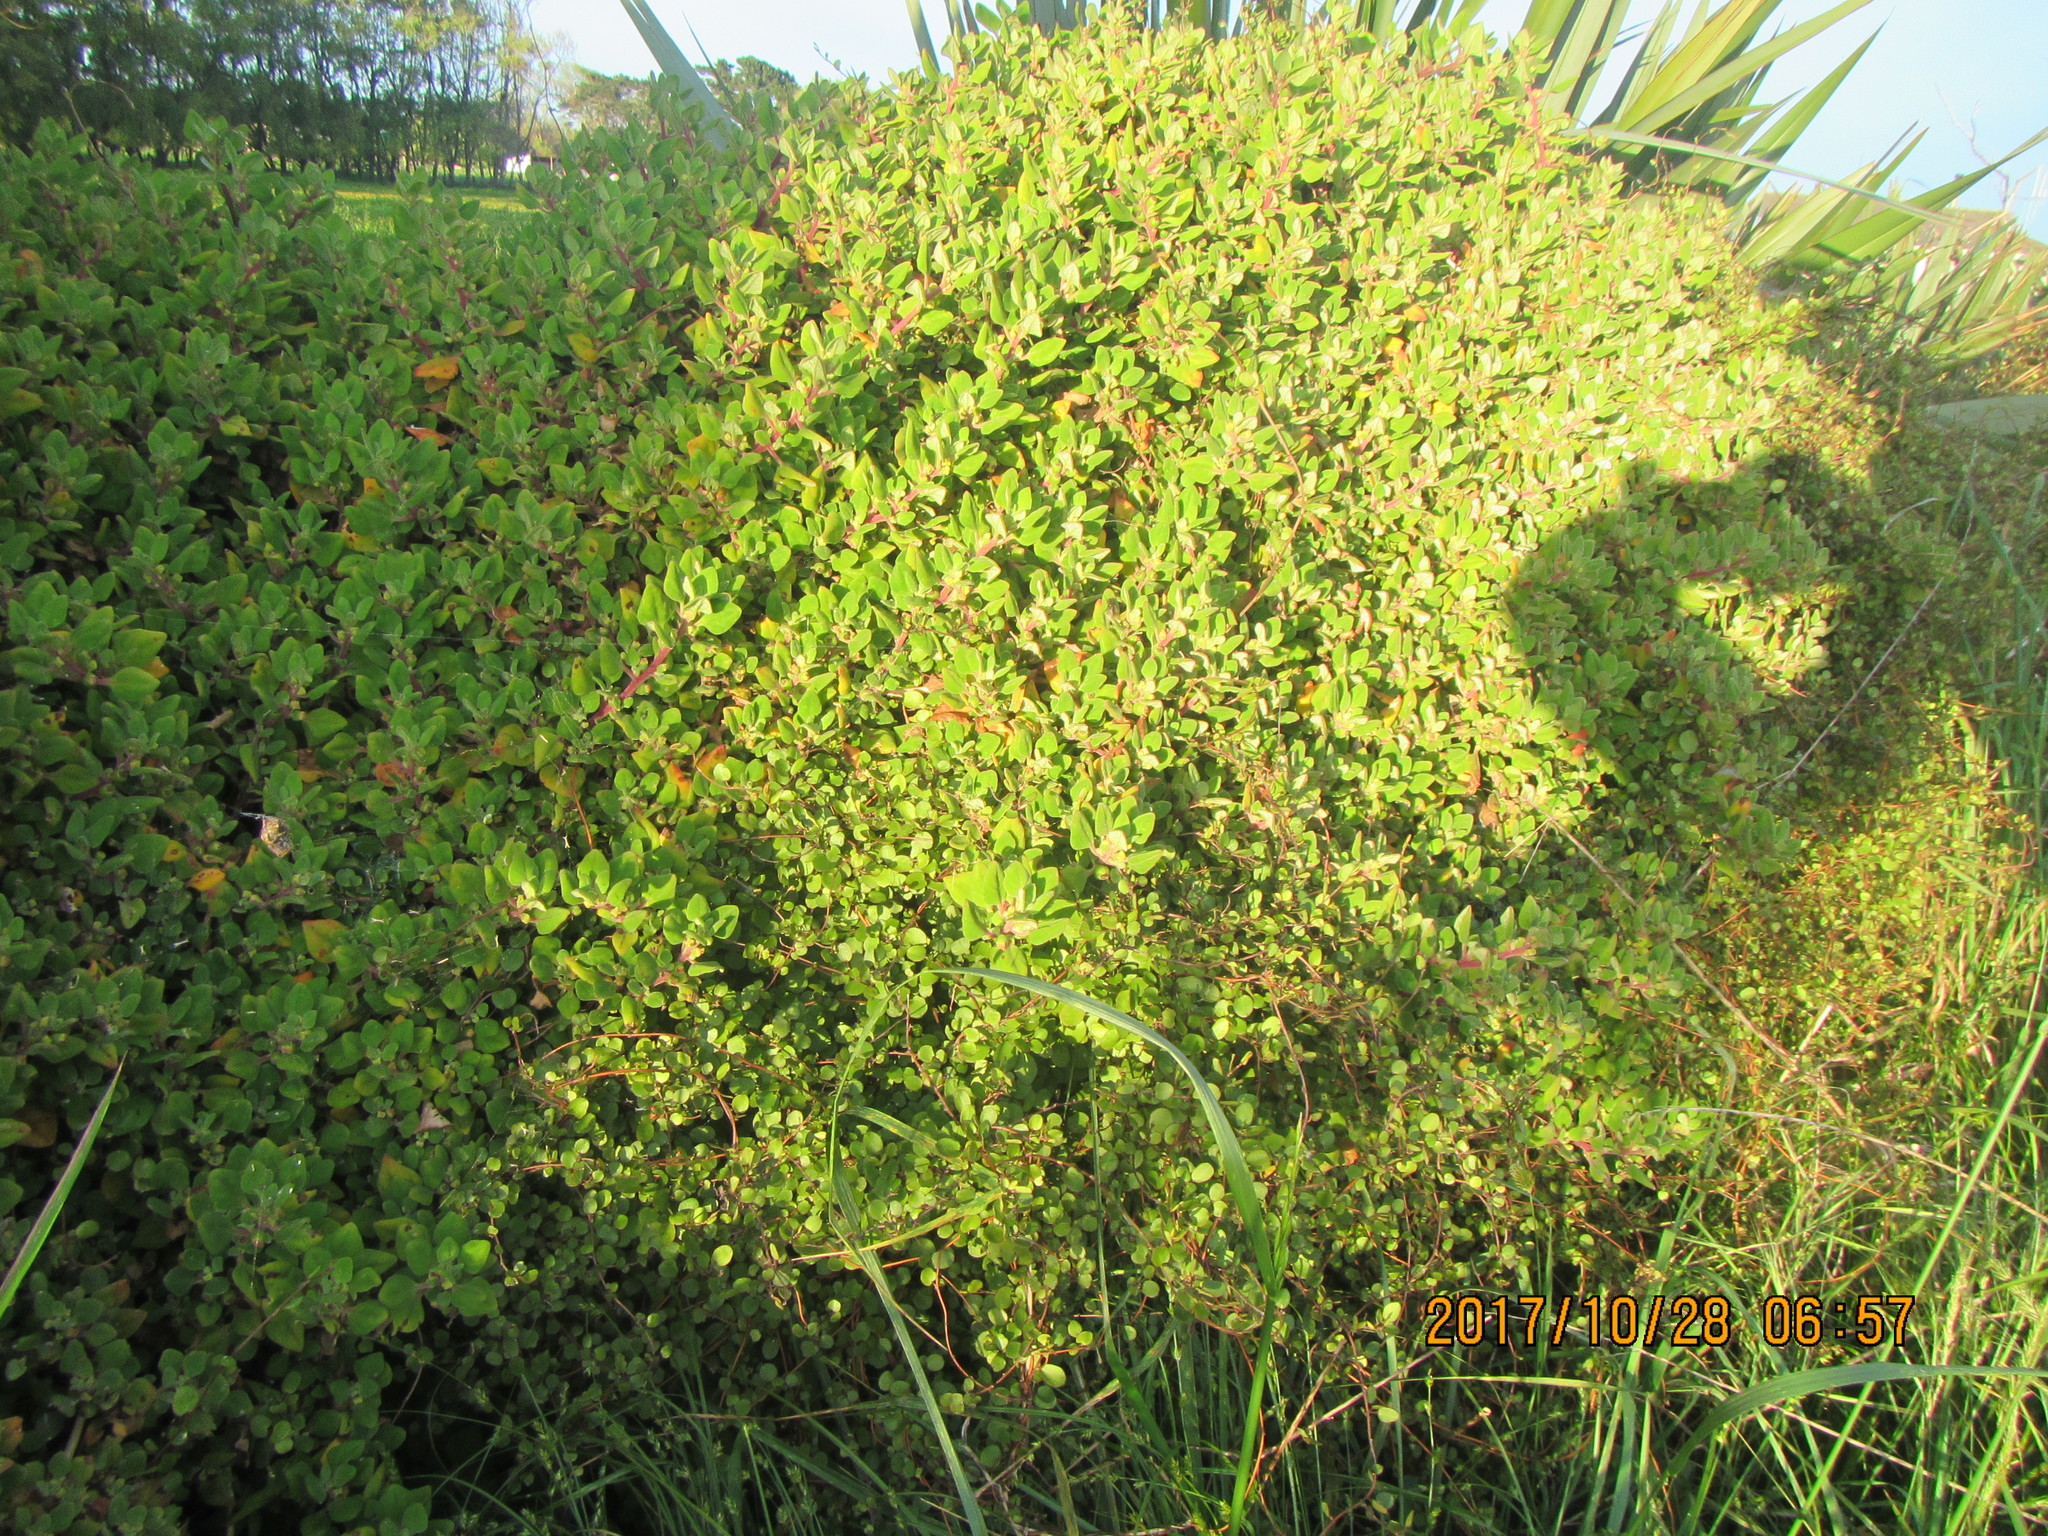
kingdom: Plantae
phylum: Tracheophyta
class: Magnoliopsida
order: Caryophyllales
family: Aizoaceae
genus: Tetragonia
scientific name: Tetragonia implexicoma
